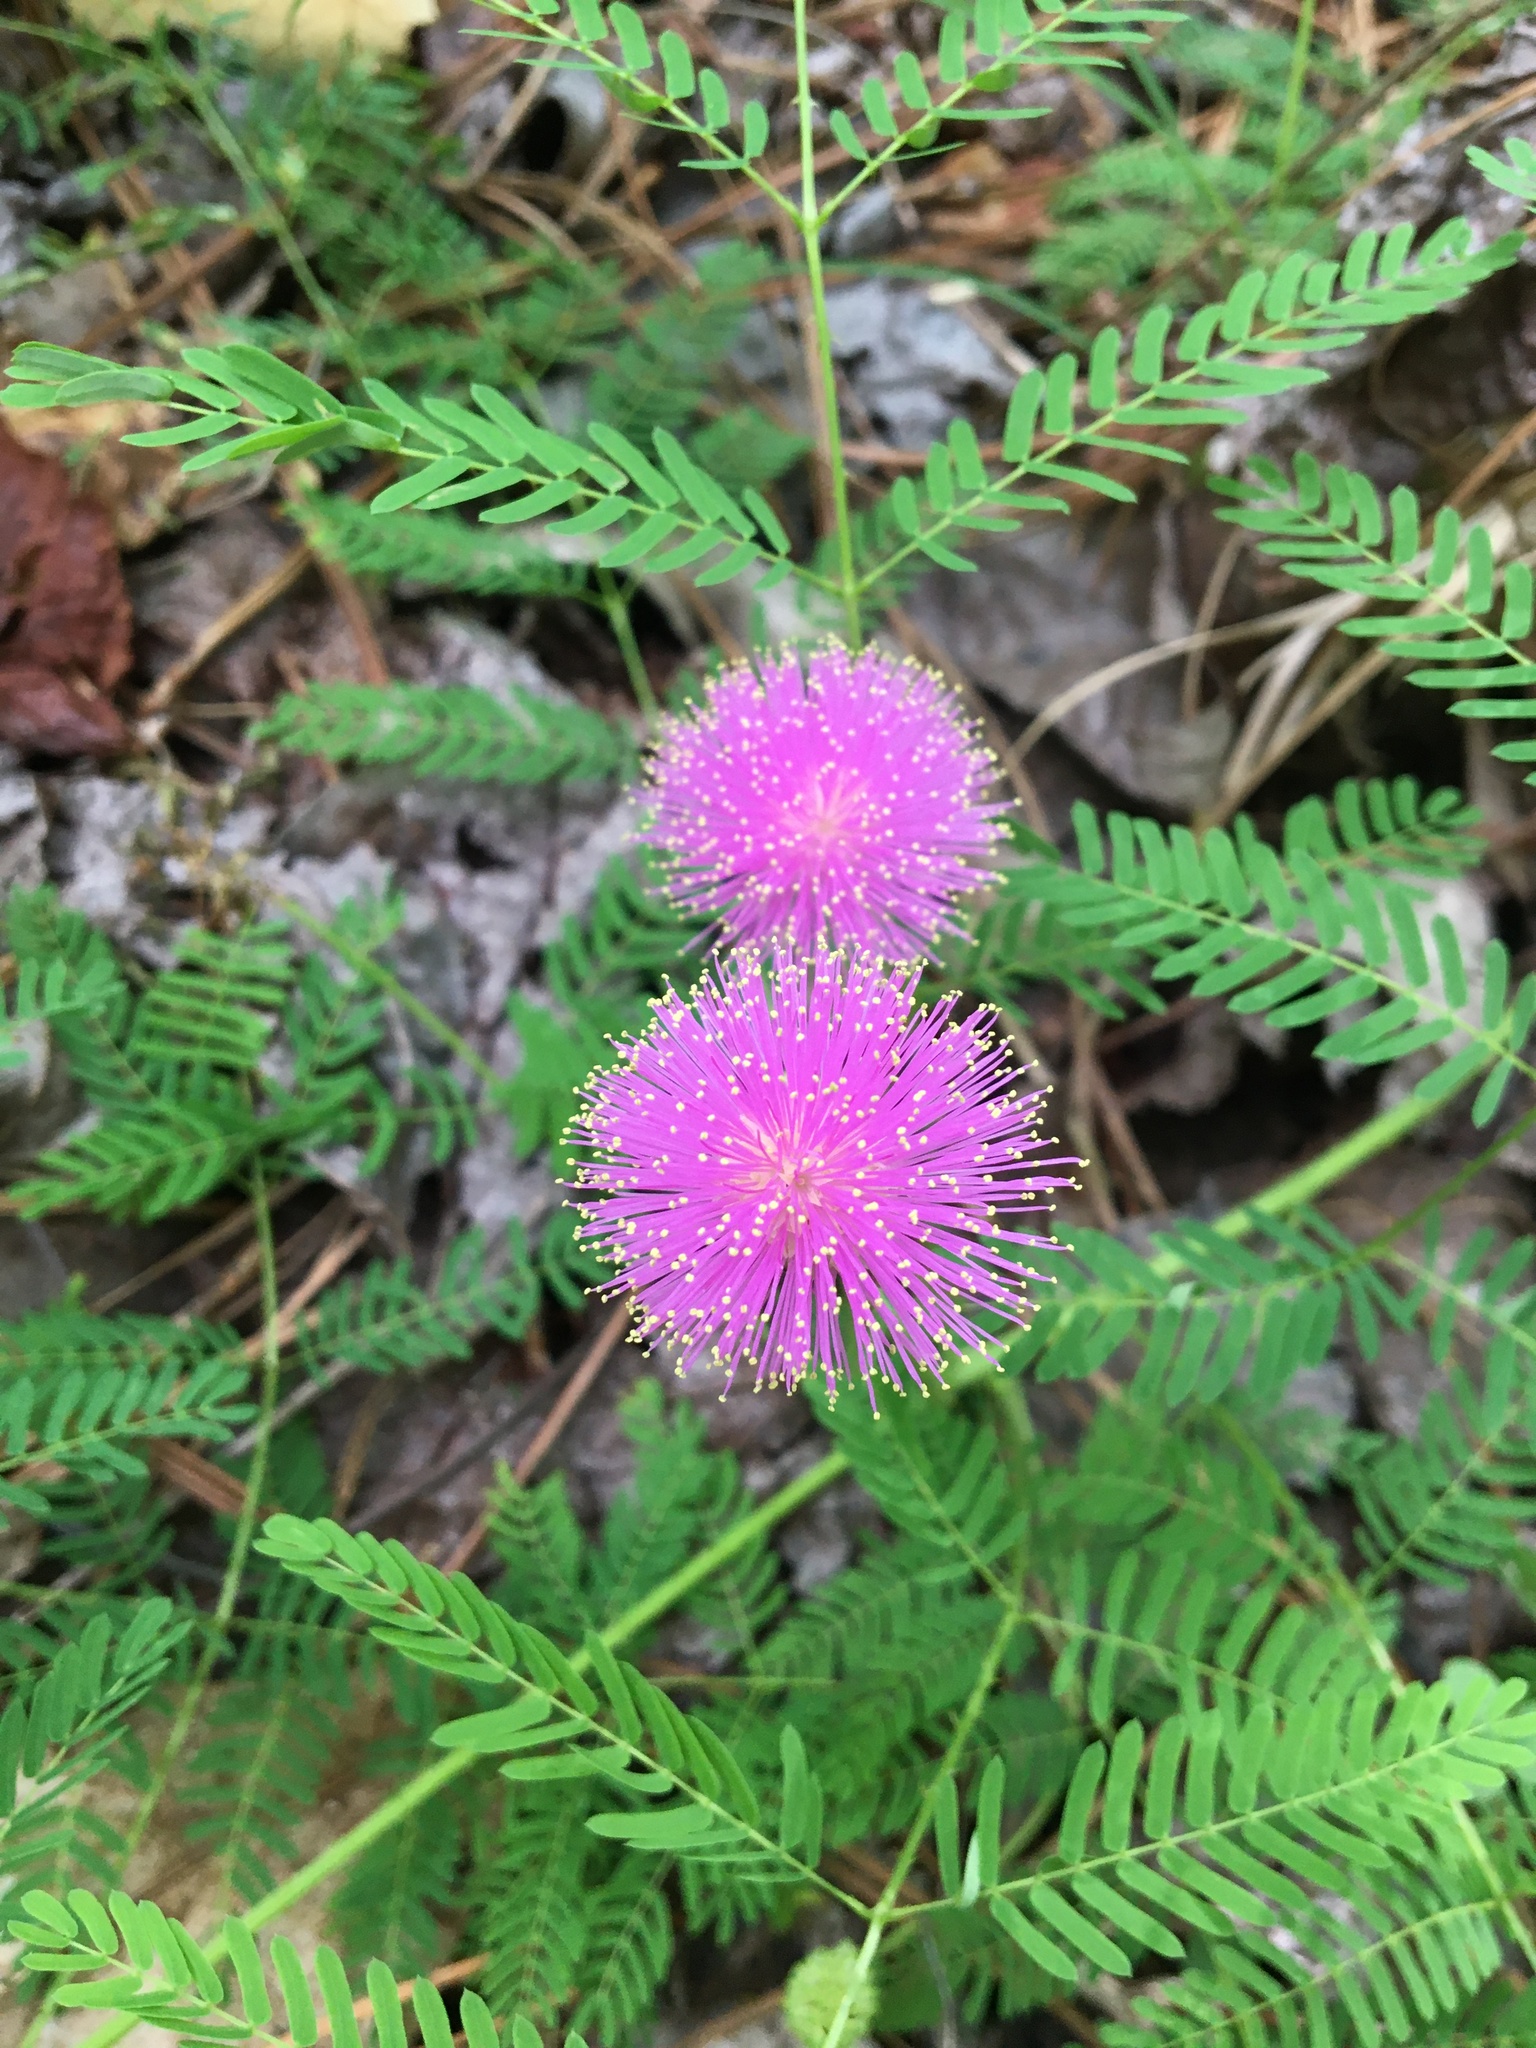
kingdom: Plantae
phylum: Tracheophyta
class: Magnoliopsida
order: Fabales
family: Fabaceae
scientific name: Fabaceae
